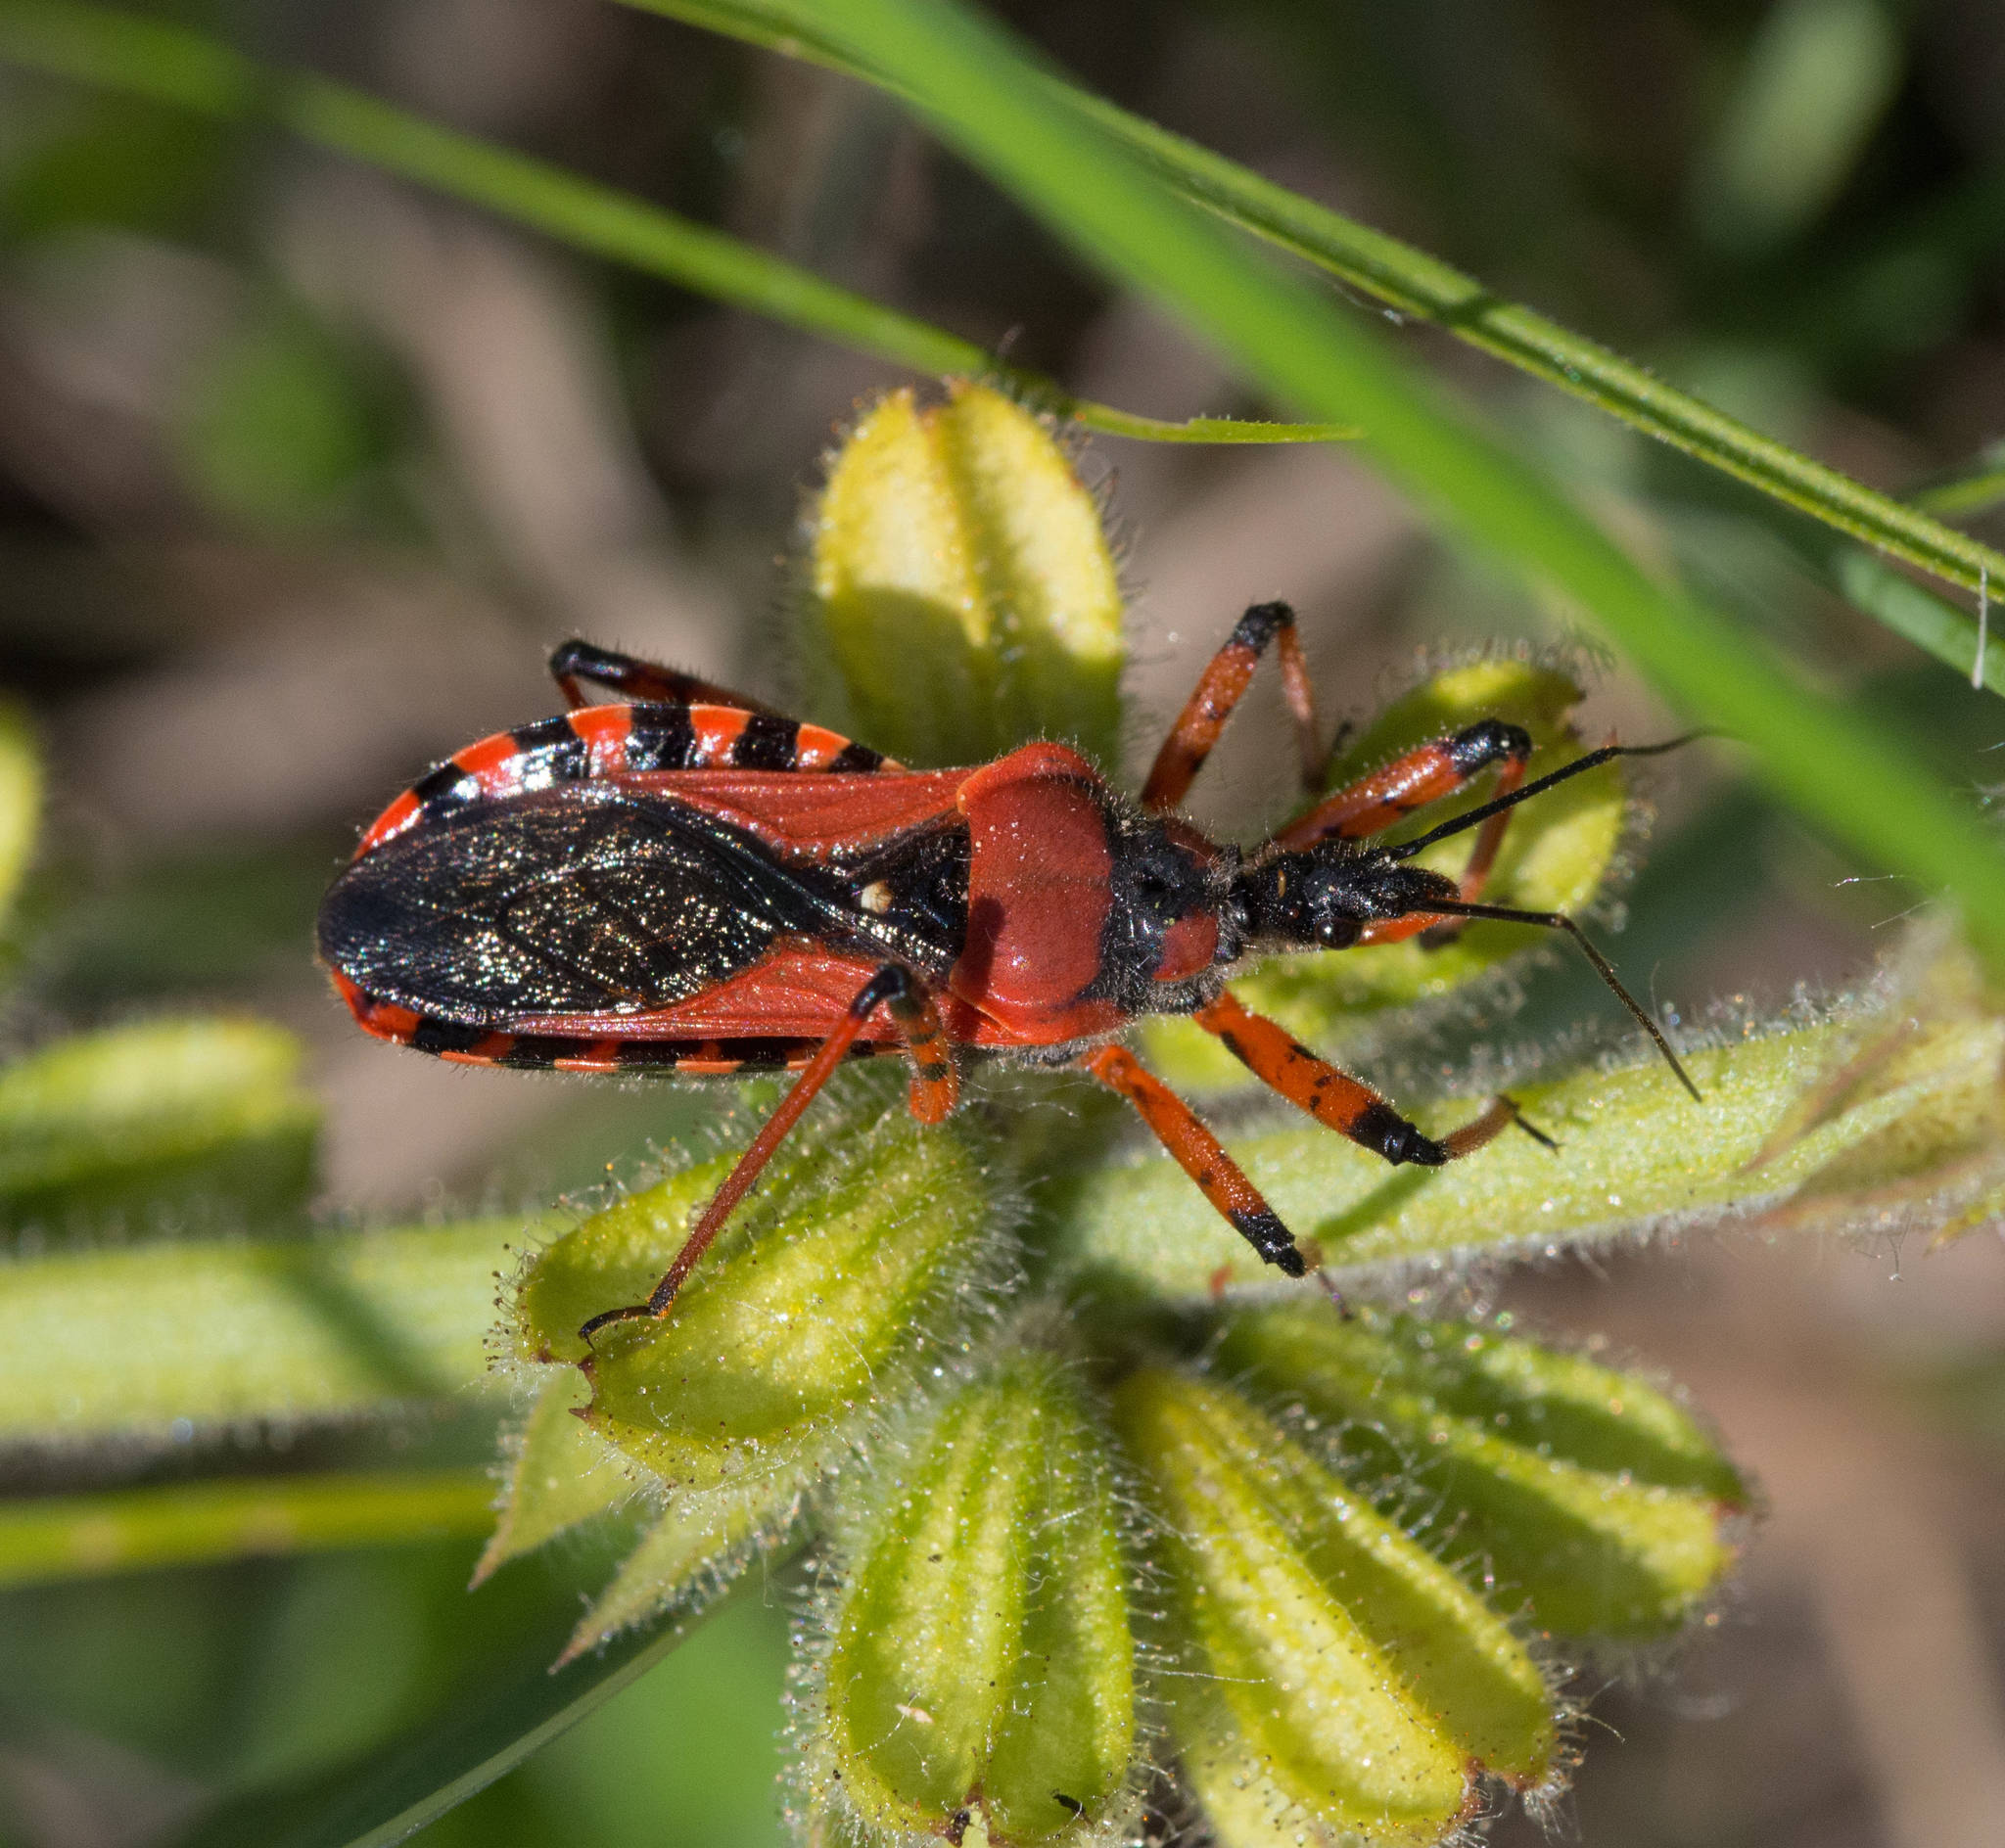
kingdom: Animalia
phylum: Arthropoda
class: Insecta
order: Hemiptera
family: Reduviidae
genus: Rhynocoris
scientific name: Rhynocoris iracundus
